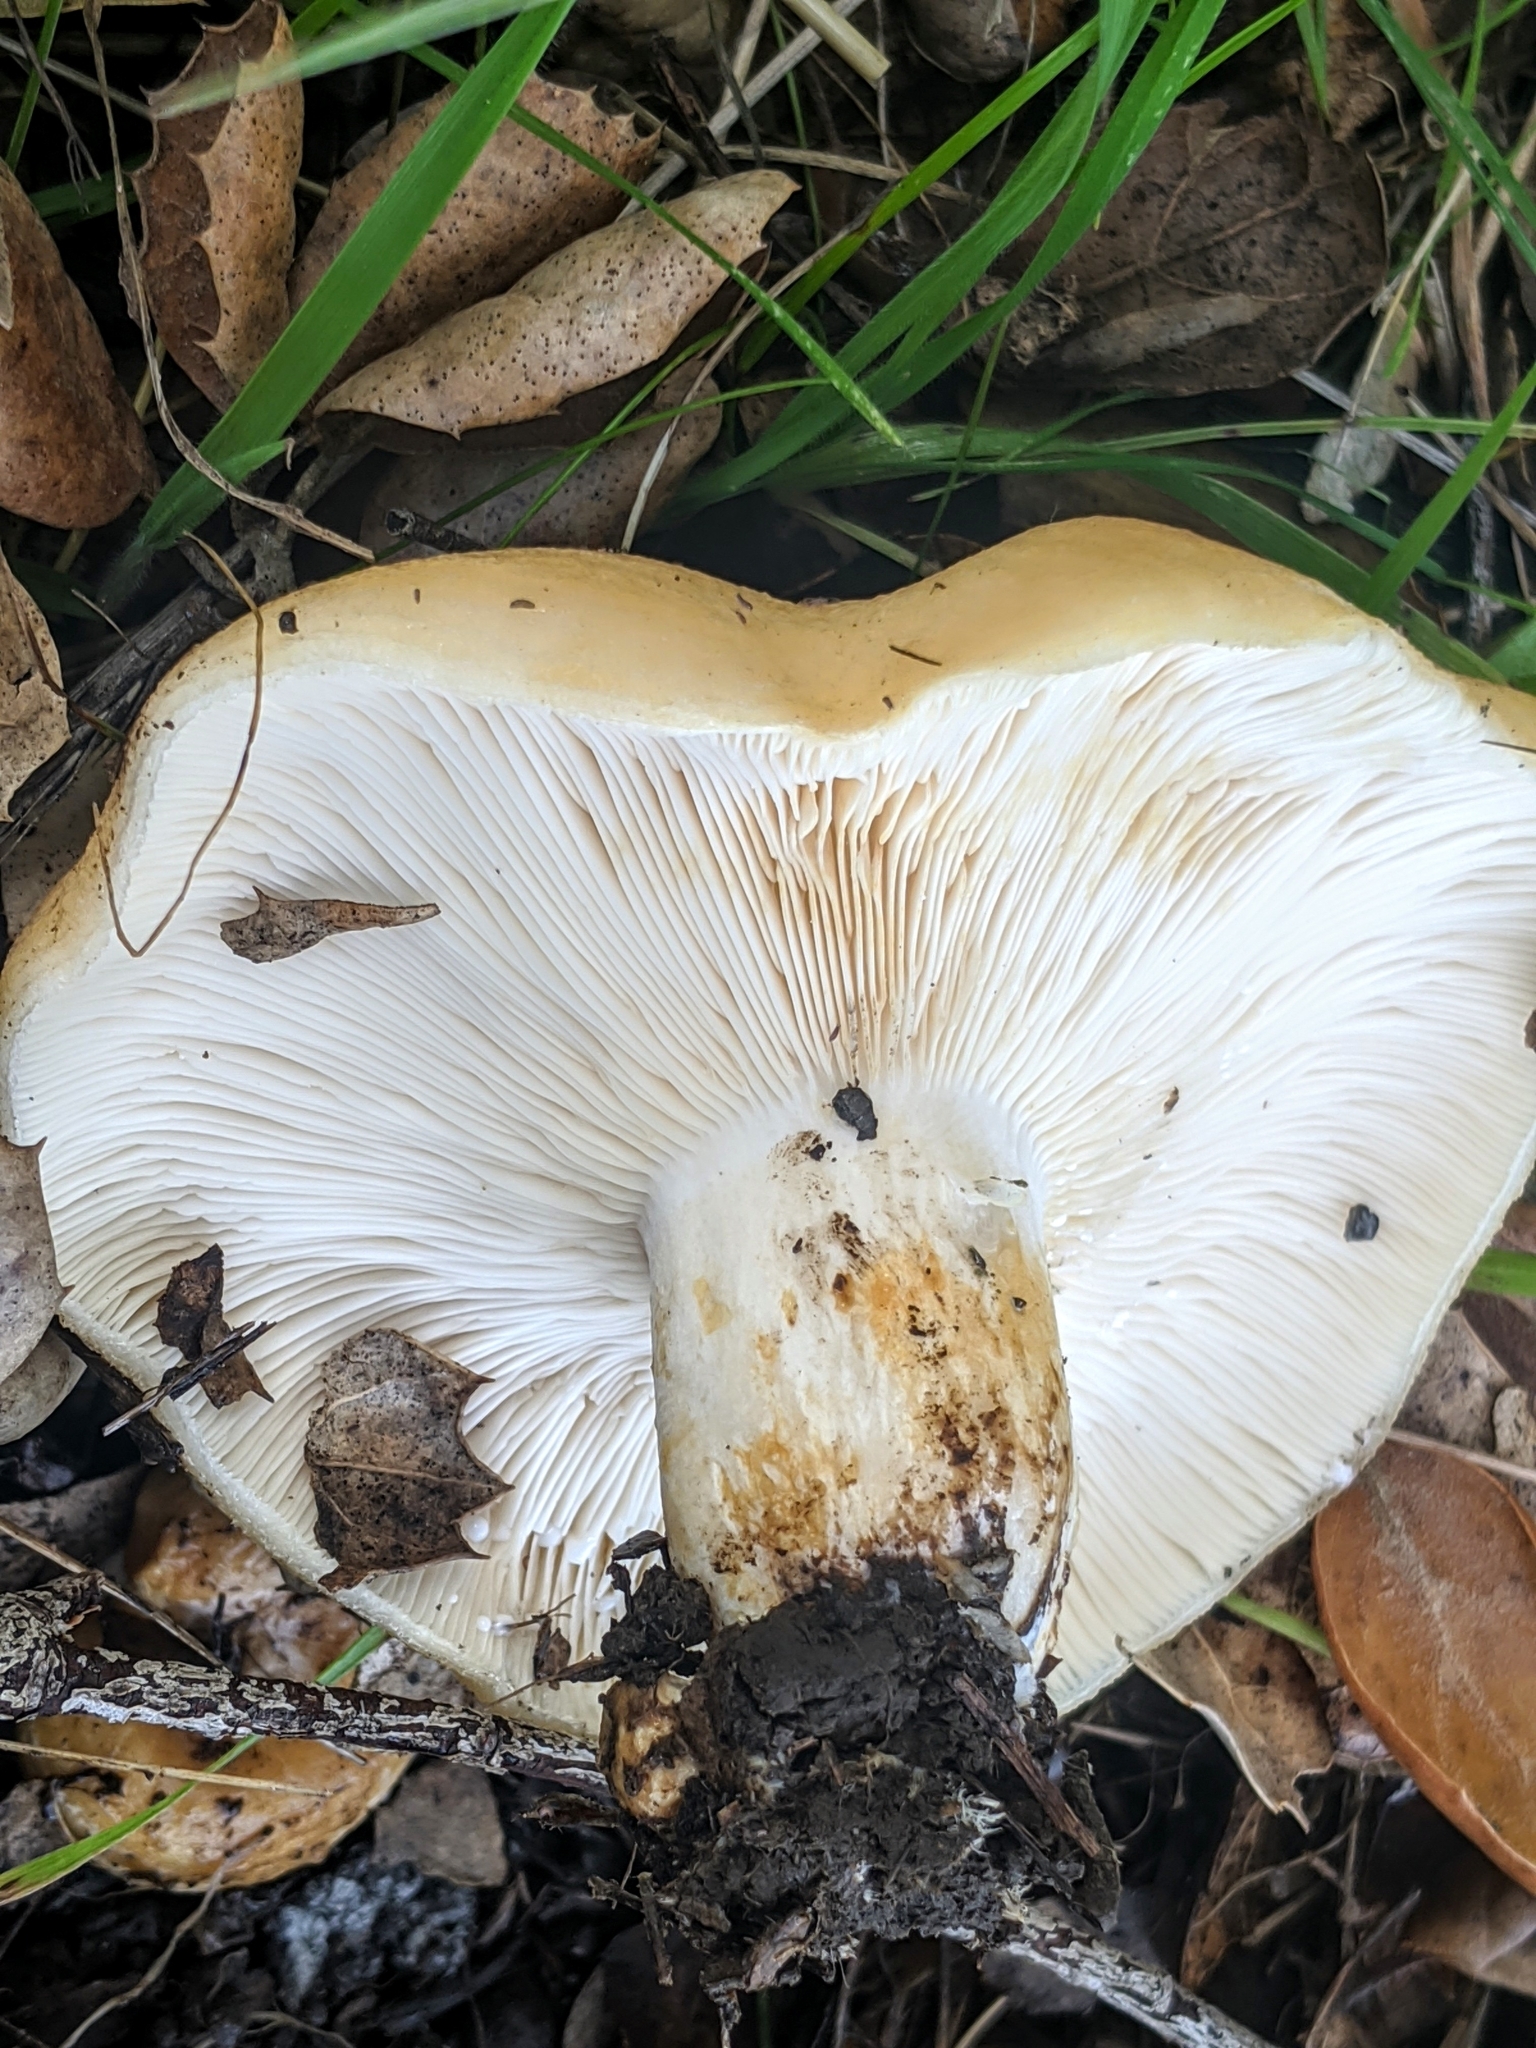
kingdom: Fungi
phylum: Basidiomycota
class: Agaricomycetes
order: Russulales
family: Russulaceae
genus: Lactarius
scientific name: Lactarius alnicola
